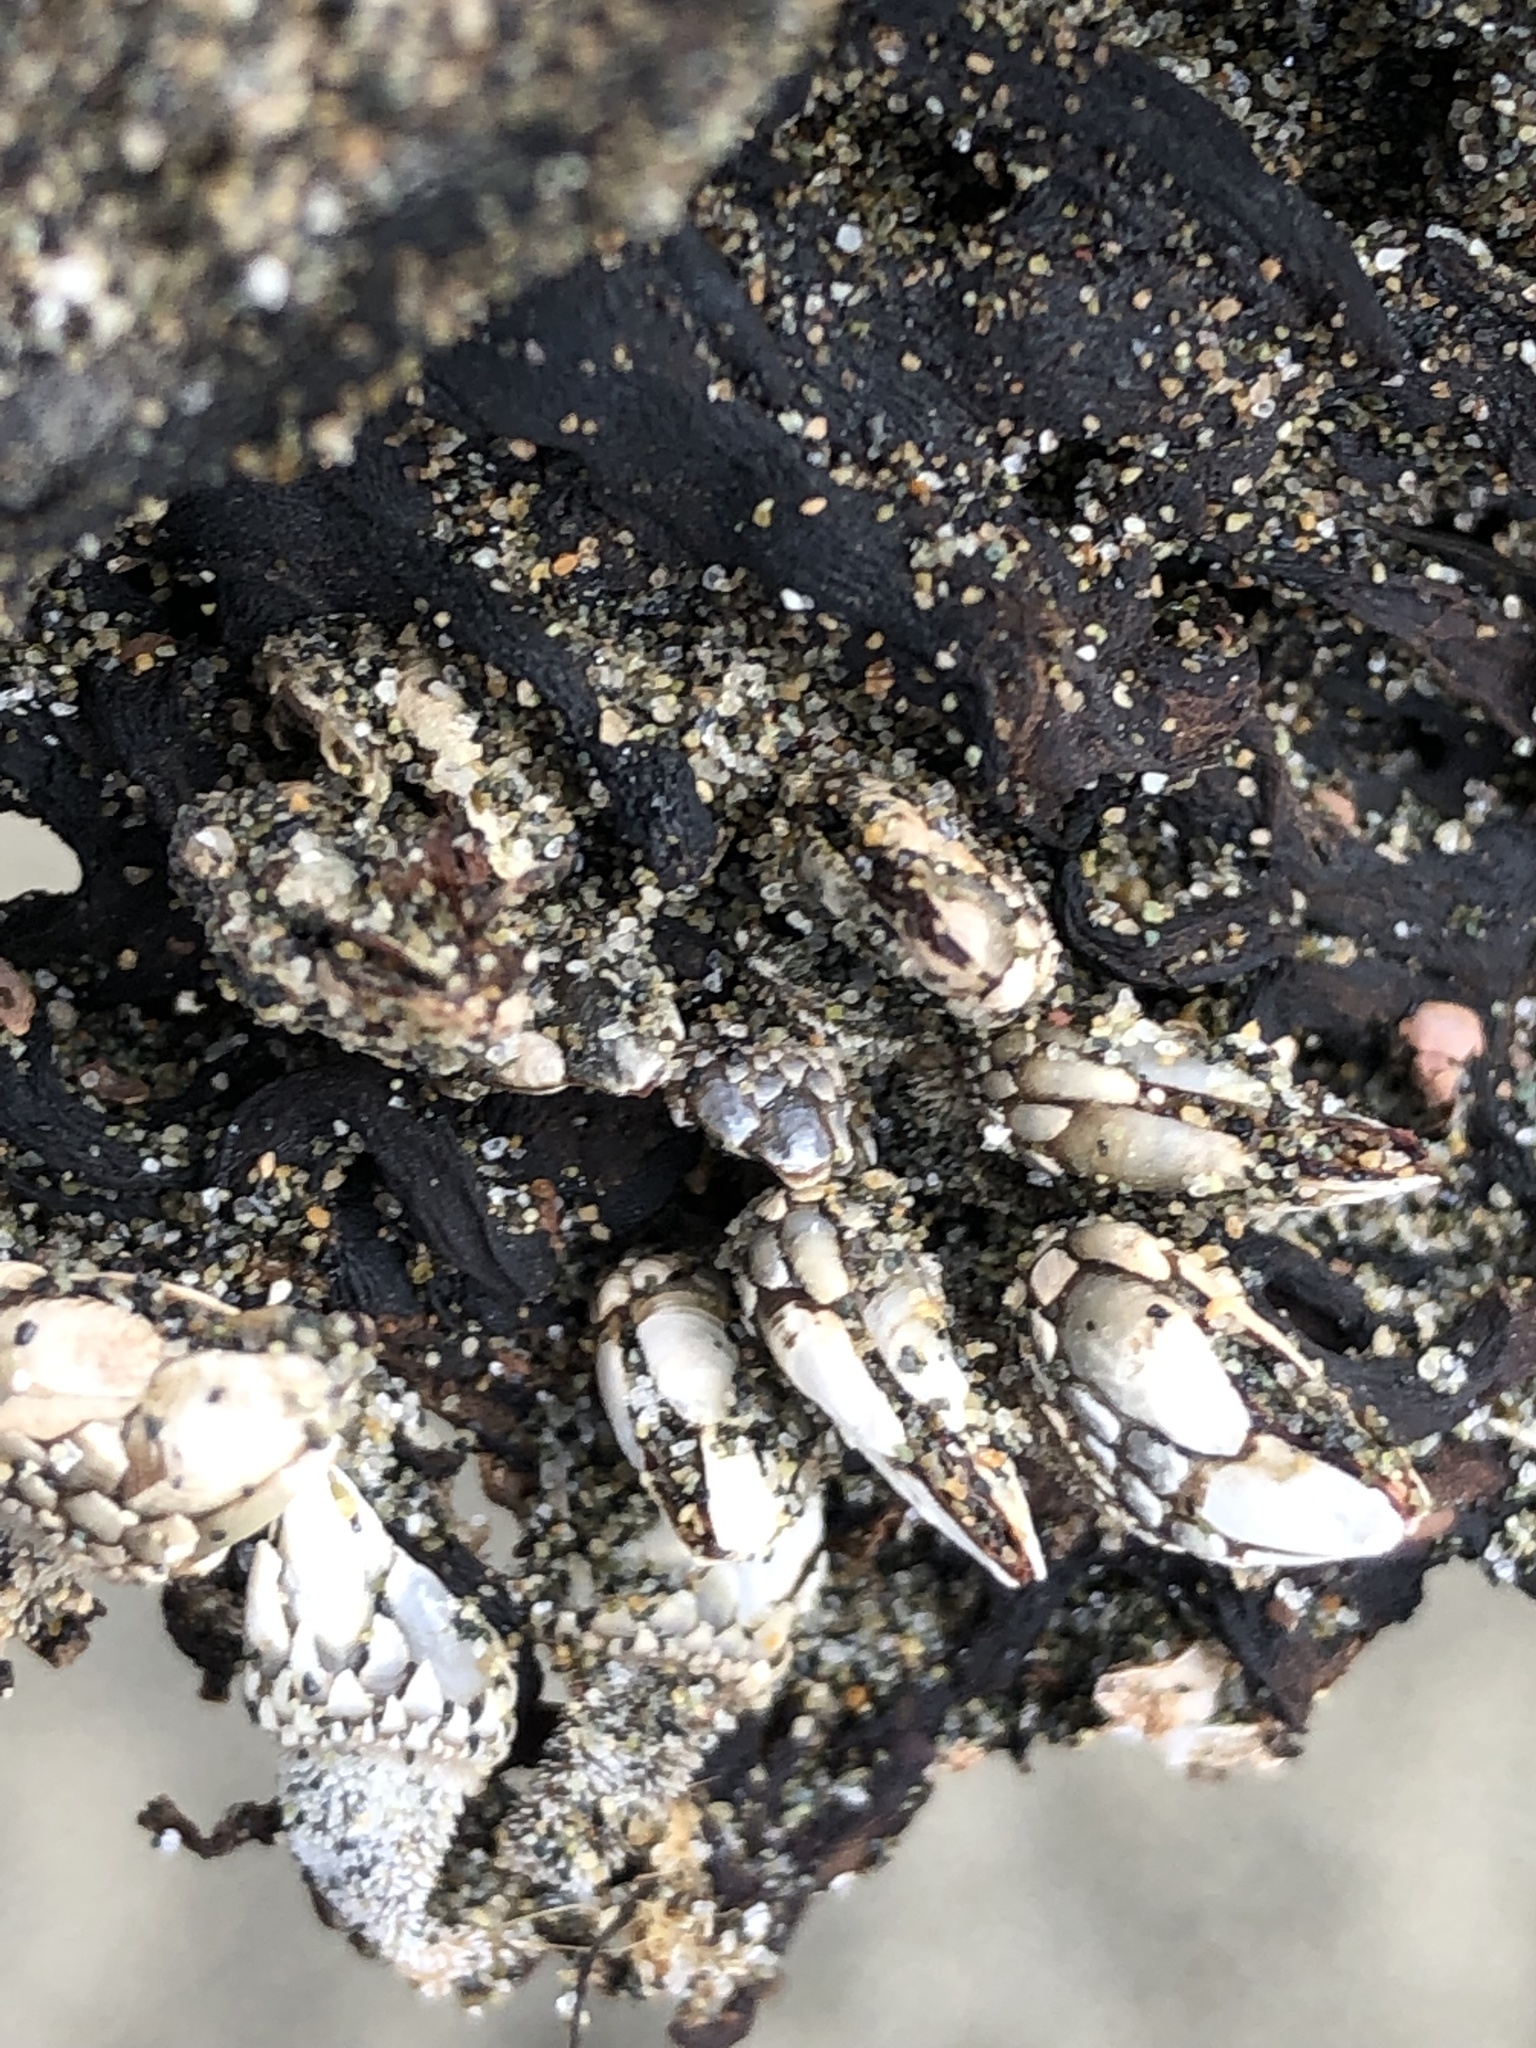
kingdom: Animalia
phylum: Arthropoda
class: Maxillopoda
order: Pedunculata
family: Pollicipedidae
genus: Pollicipes
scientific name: Pollicipes polymerus
